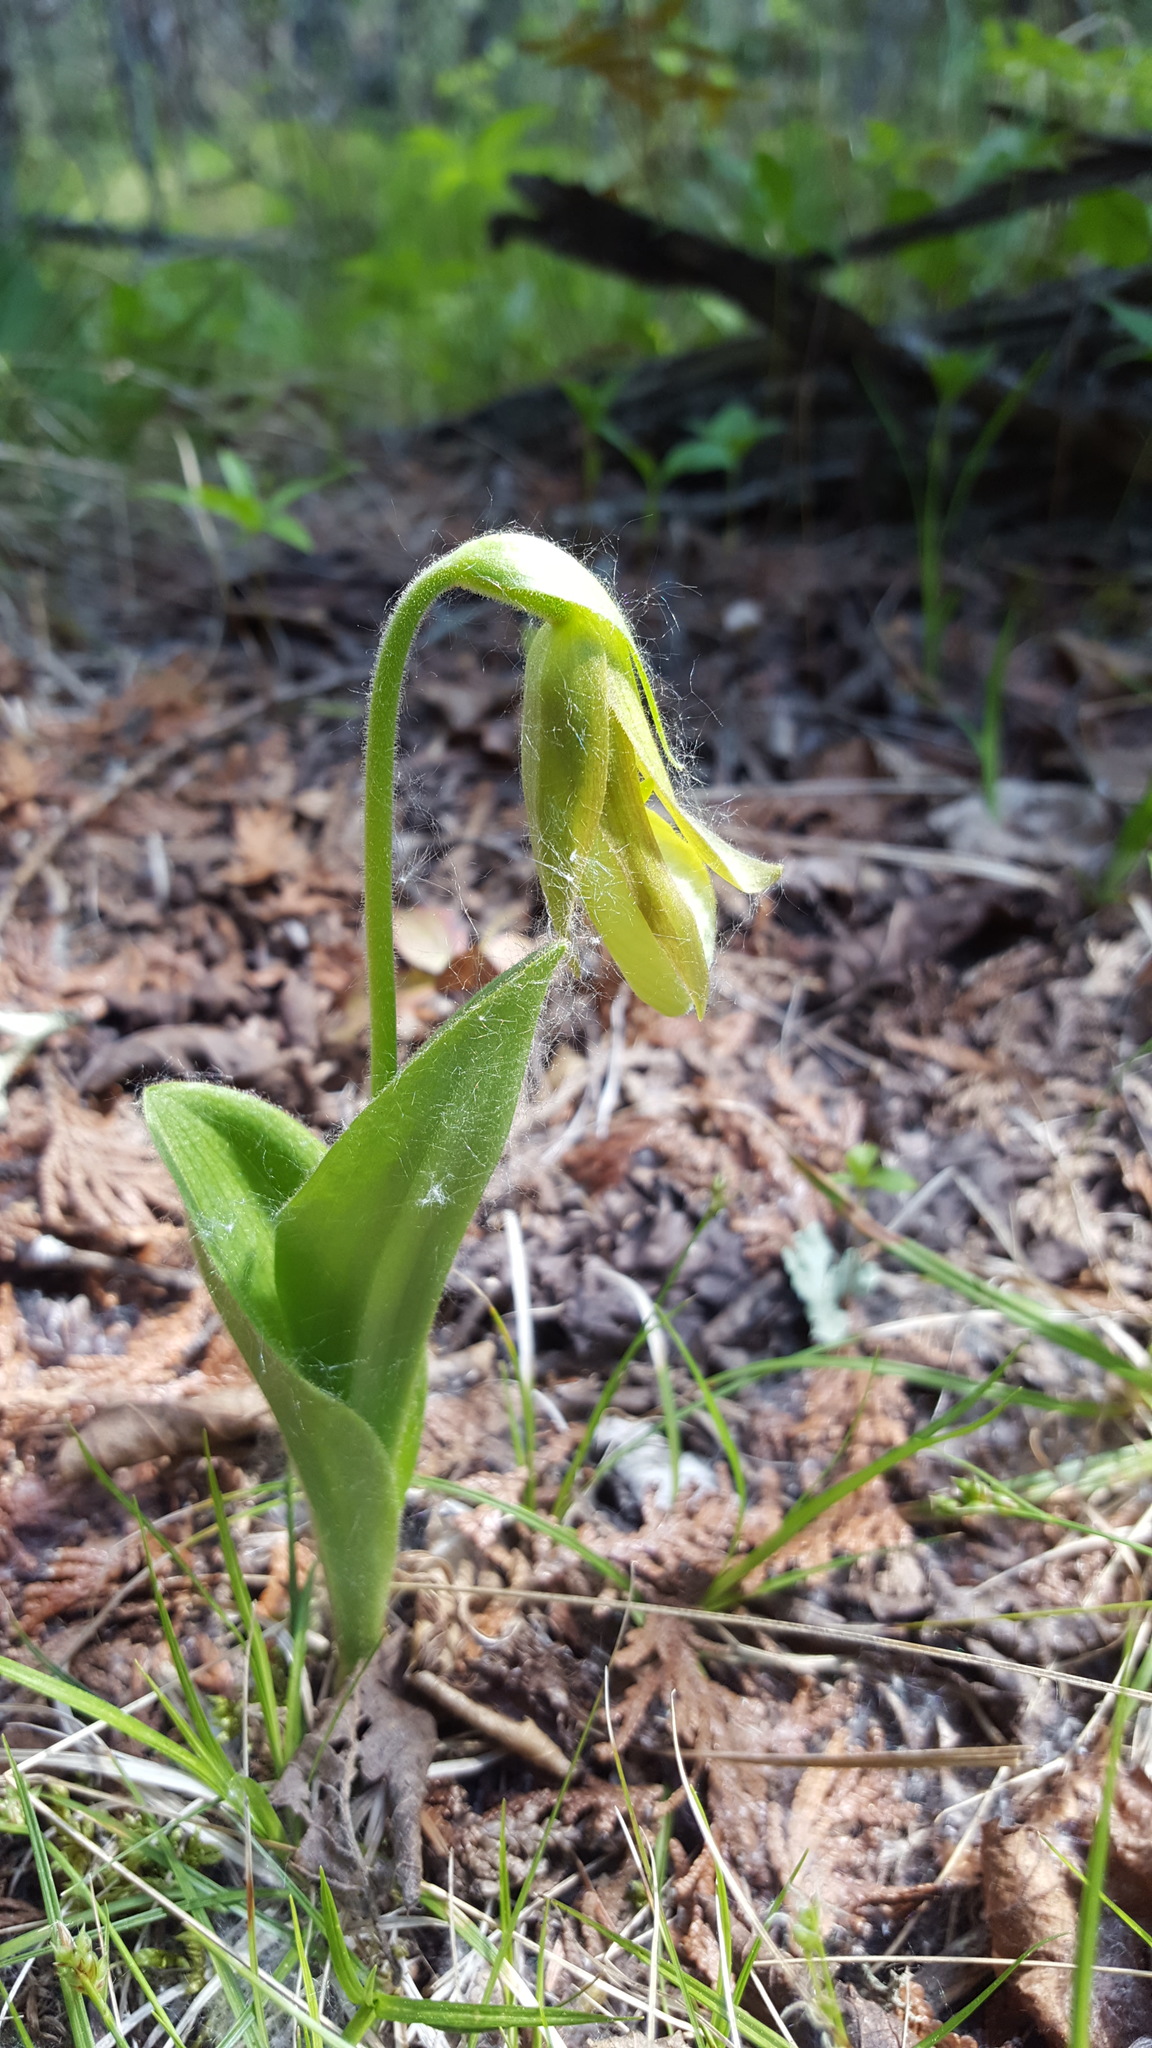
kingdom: Plantae
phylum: Tracheophyta
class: Liliopsida
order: Asparagales
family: Orchidaceae
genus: Cypripedium
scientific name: Cypripedium acaule
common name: Pink lady's-slipper
